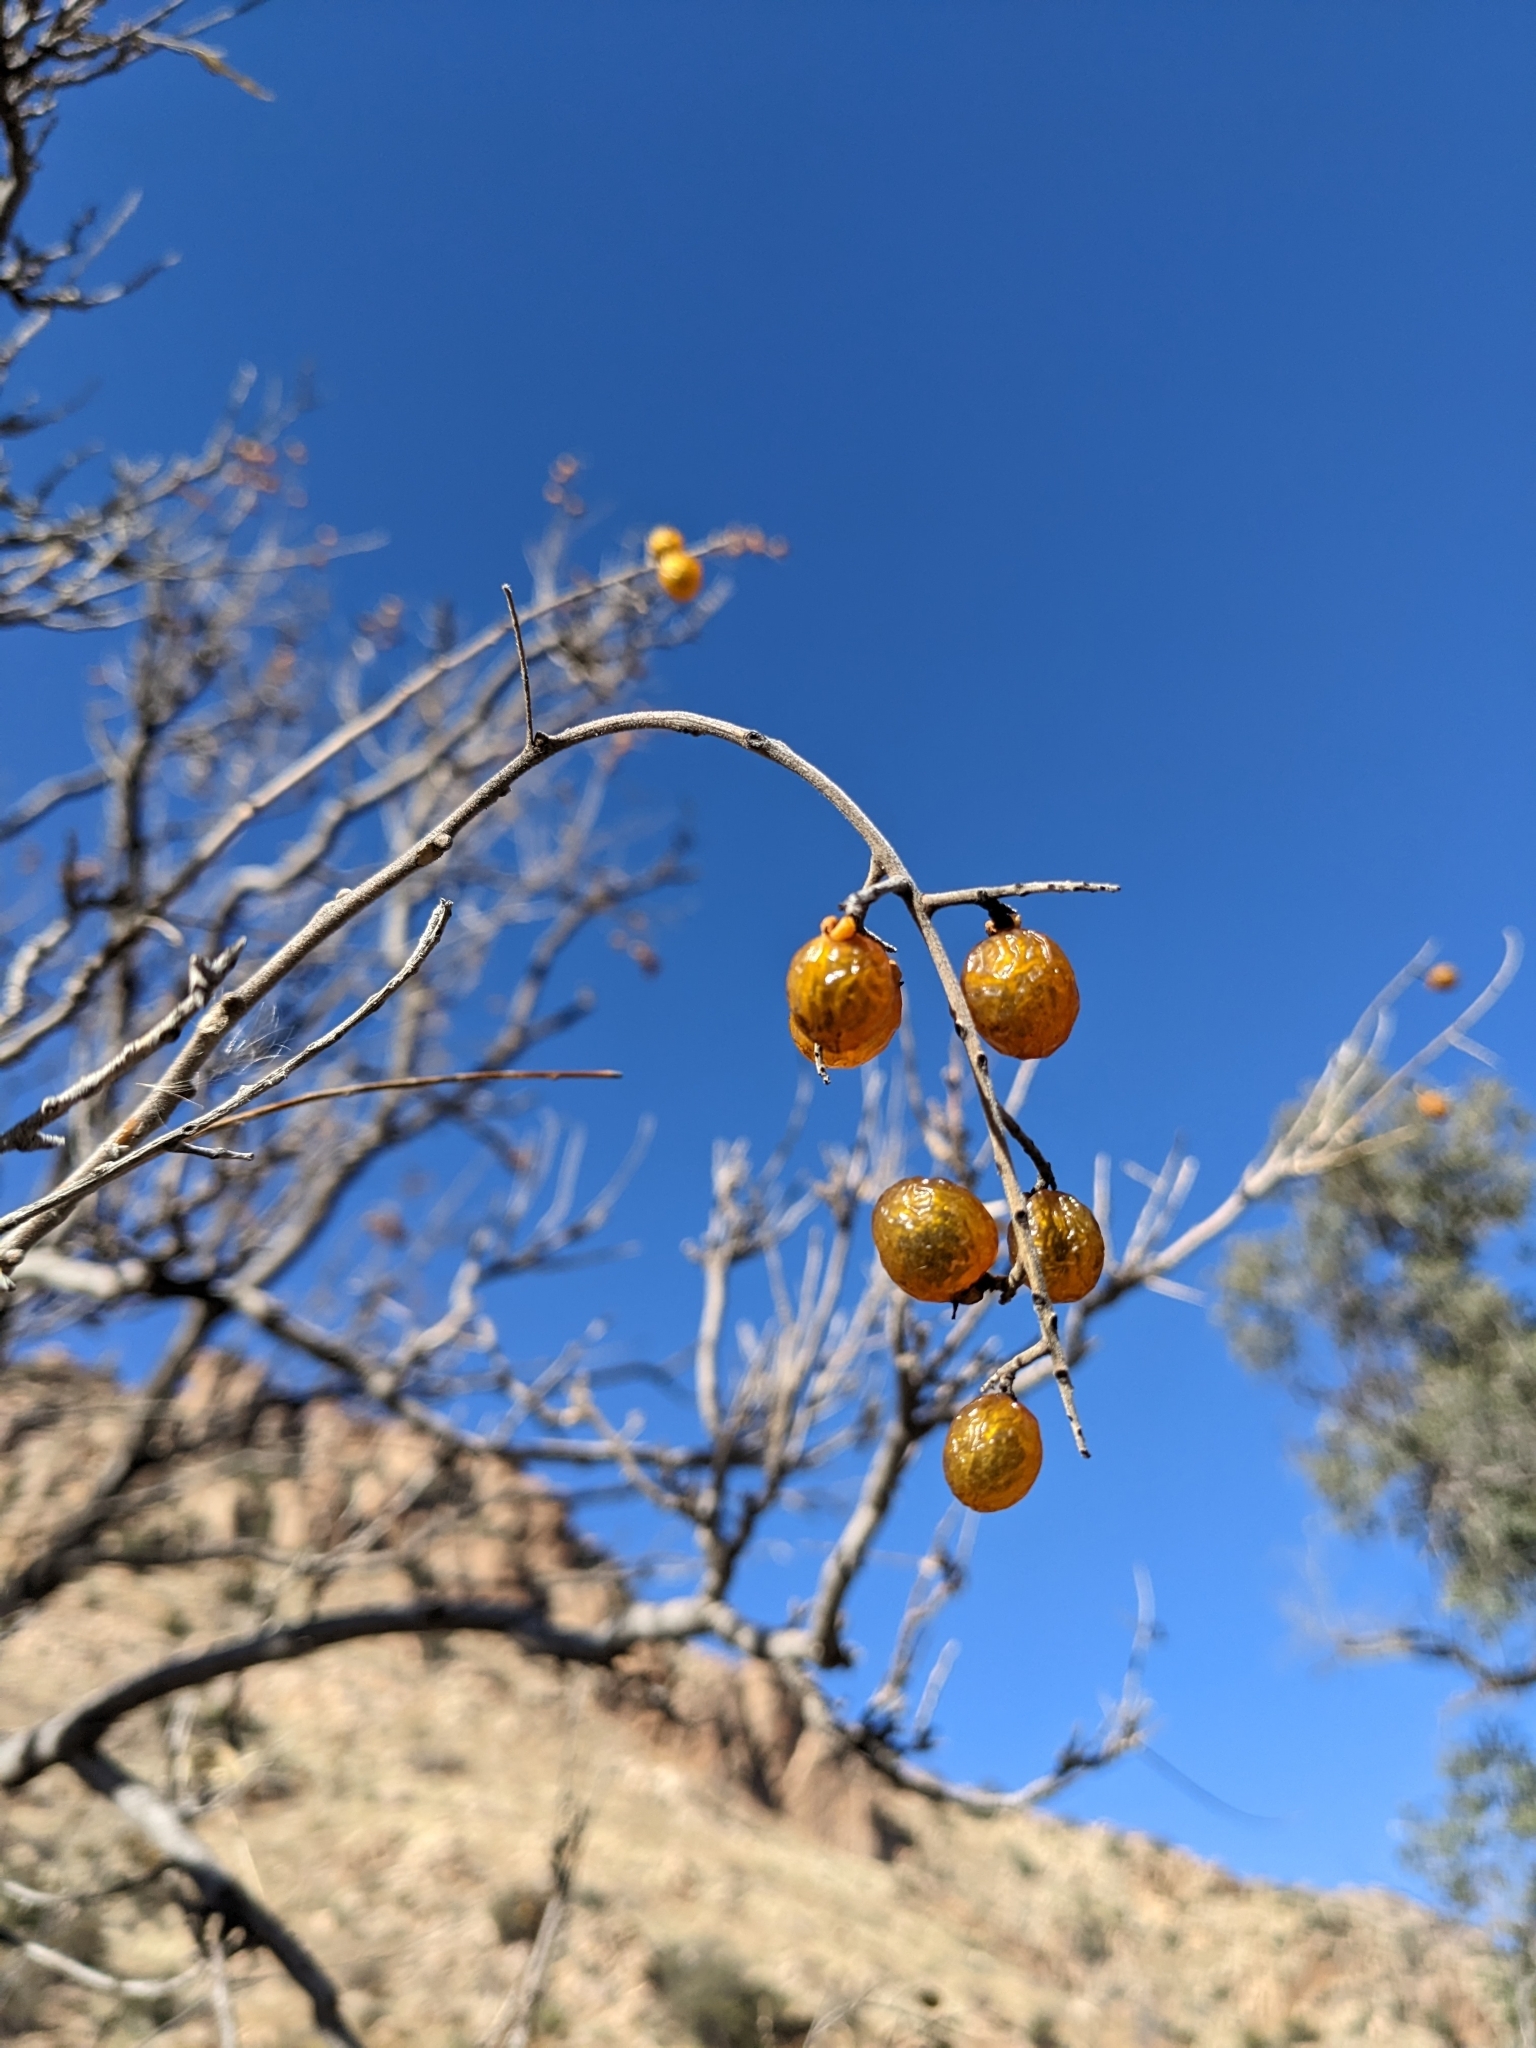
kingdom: Plantae
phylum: Tracheophyta
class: Magnoliopsida
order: Sapindales
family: Sapindaceae
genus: Sapindus
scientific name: Sapindus drummondii
